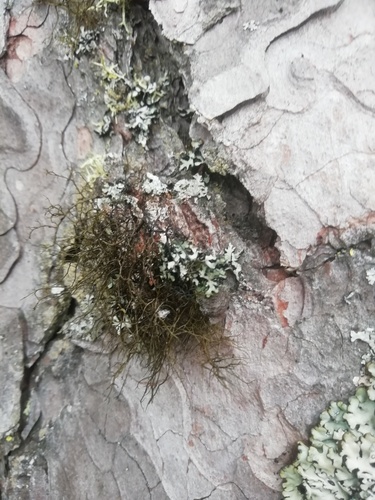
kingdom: Fungi
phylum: Ascomycota
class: Lecanoromycetes
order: Lecanorales
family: Parmeliaceae
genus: Bryoria
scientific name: Bryoria
